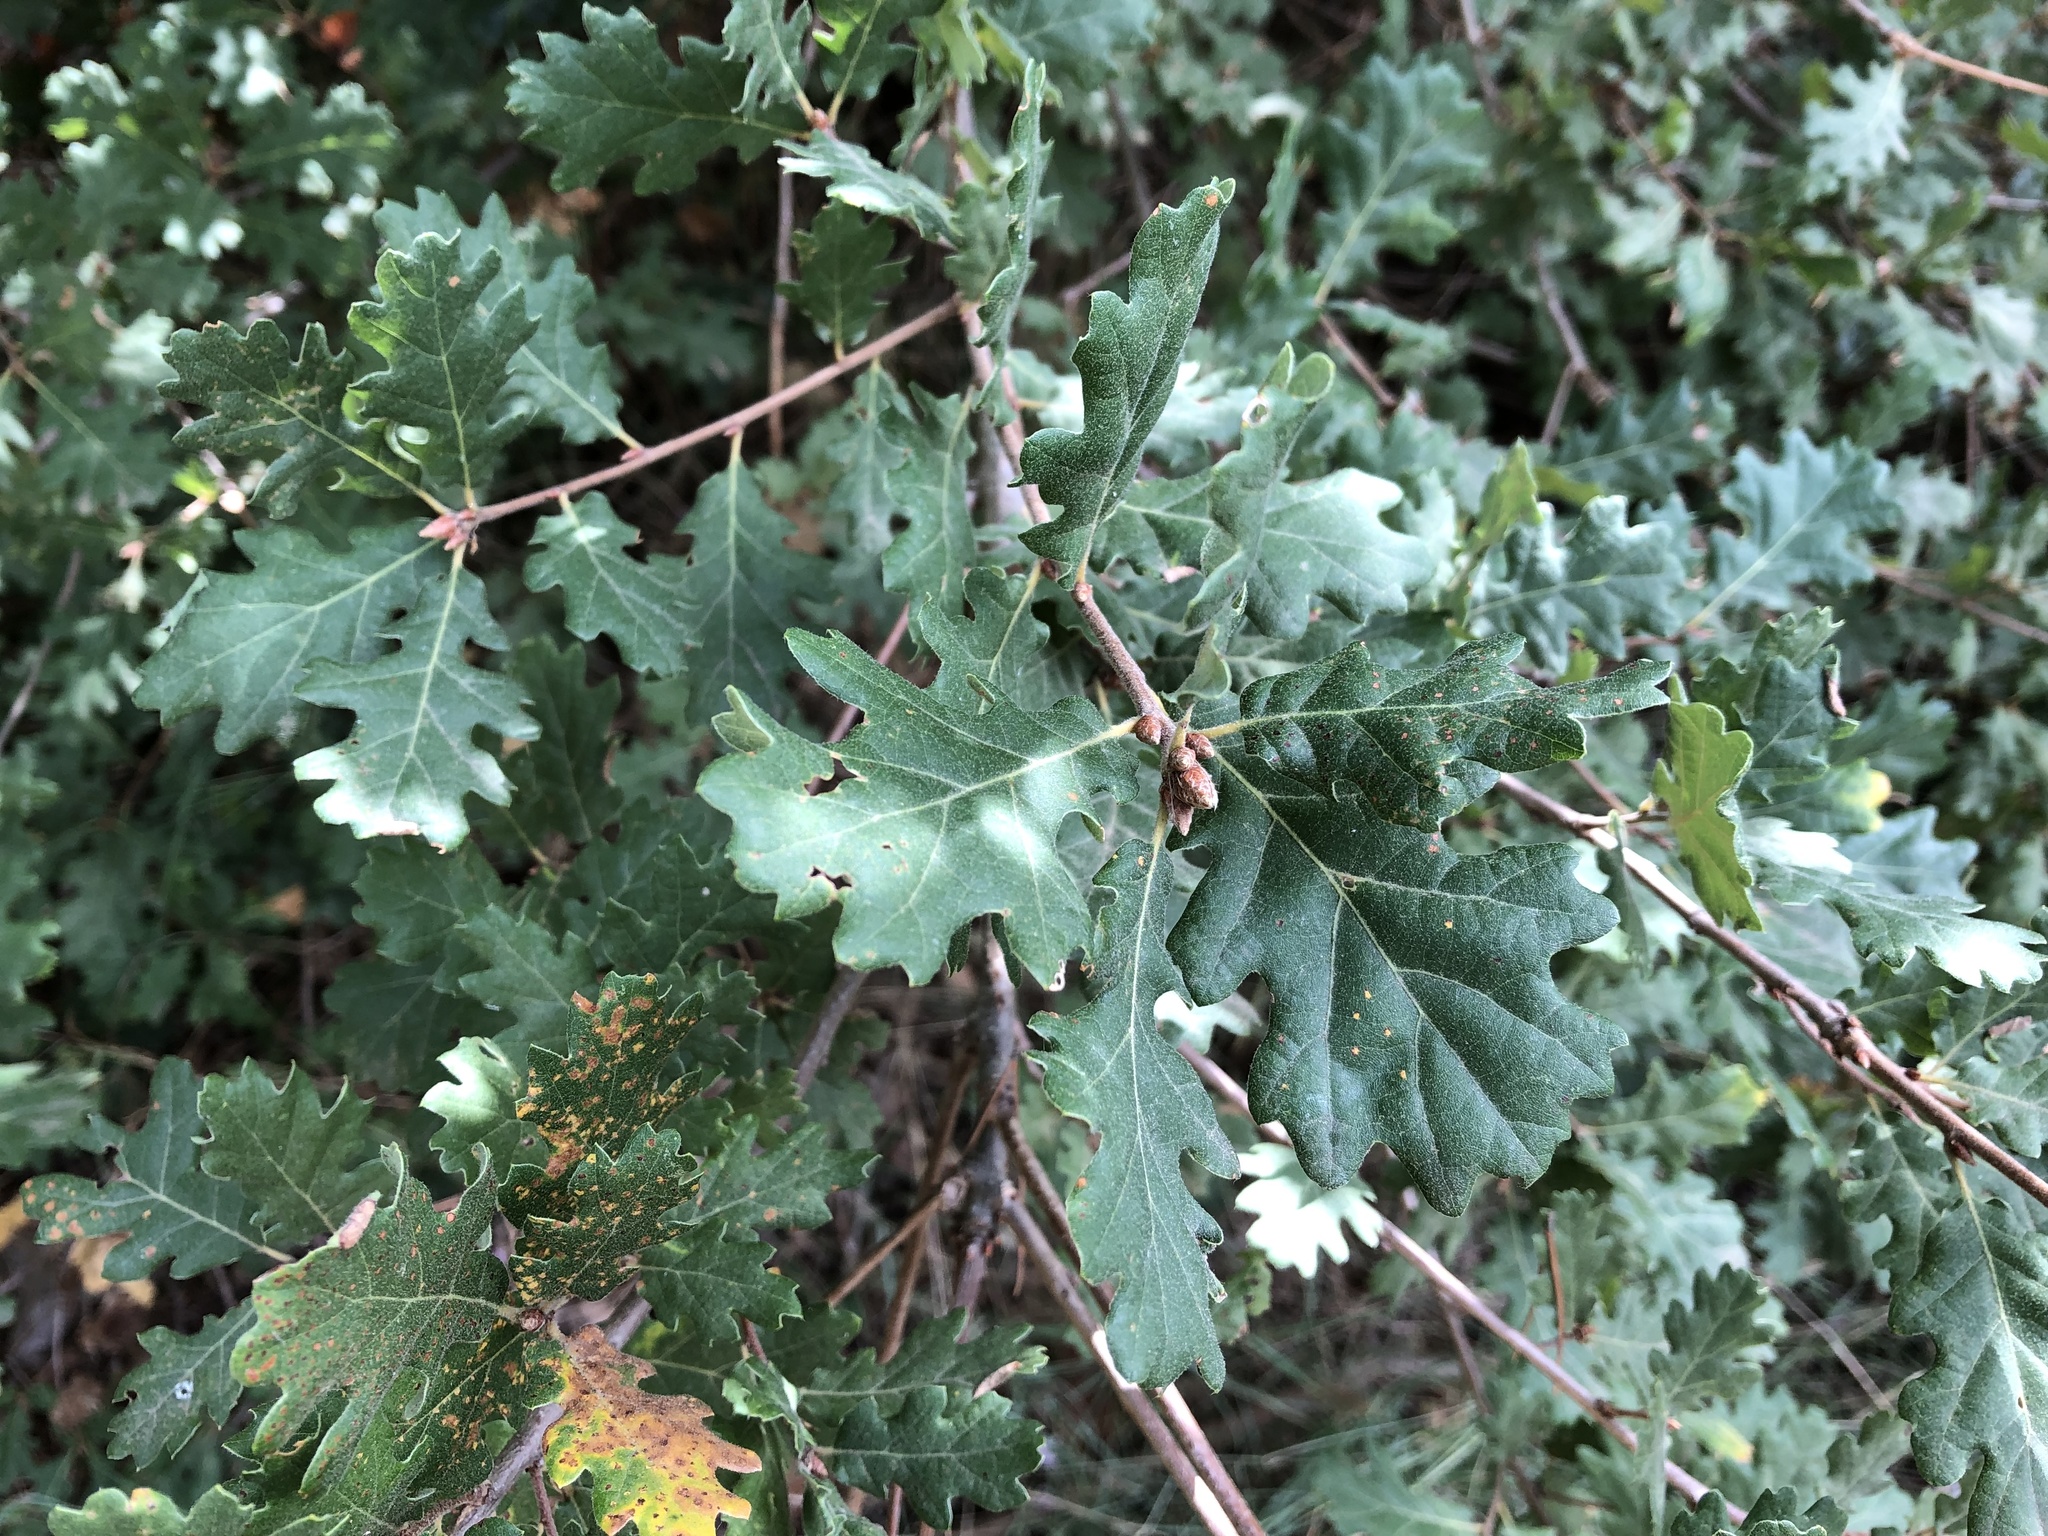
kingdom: Plantae
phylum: Tracheophyta
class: Magnoliopsida
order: Fagales
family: Fagaceae
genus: Quercus
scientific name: Quercus pubescens
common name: Downy oak
